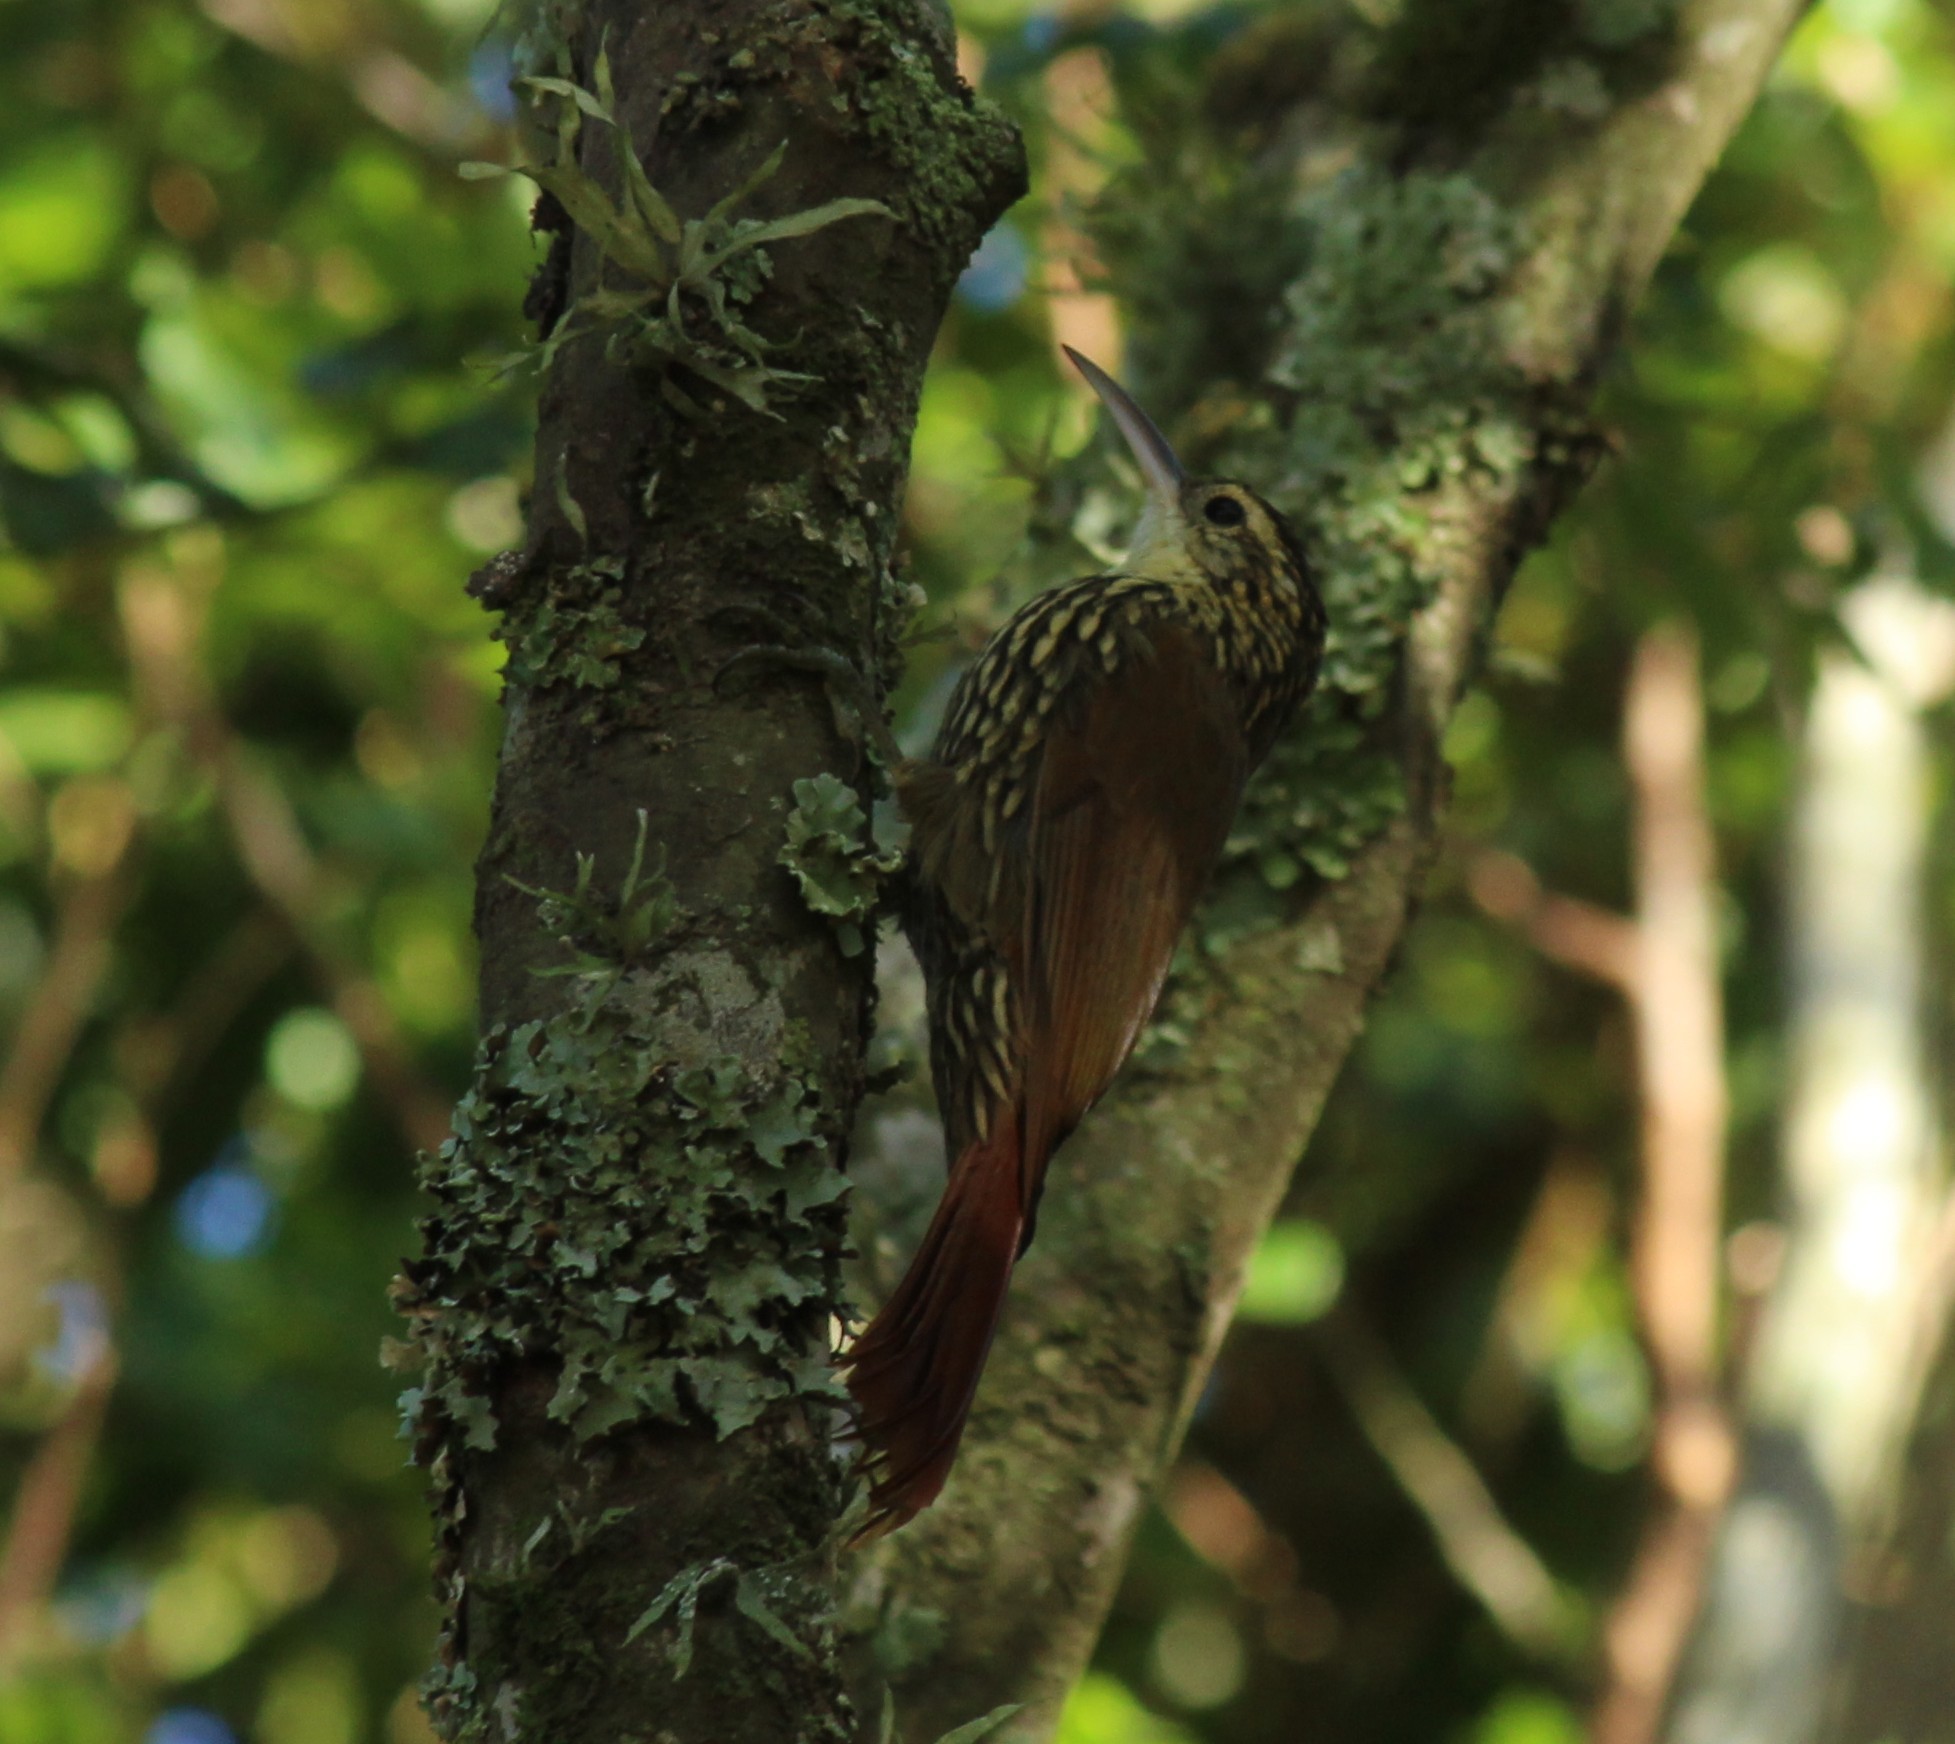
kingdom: Animalia
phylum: Chordata
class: Aves
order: Passeriformes
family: Furnariidae
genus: Lepidocolaptes
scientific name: Lepidocolaptes falcinellus
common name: Scalloped woodcreeper
